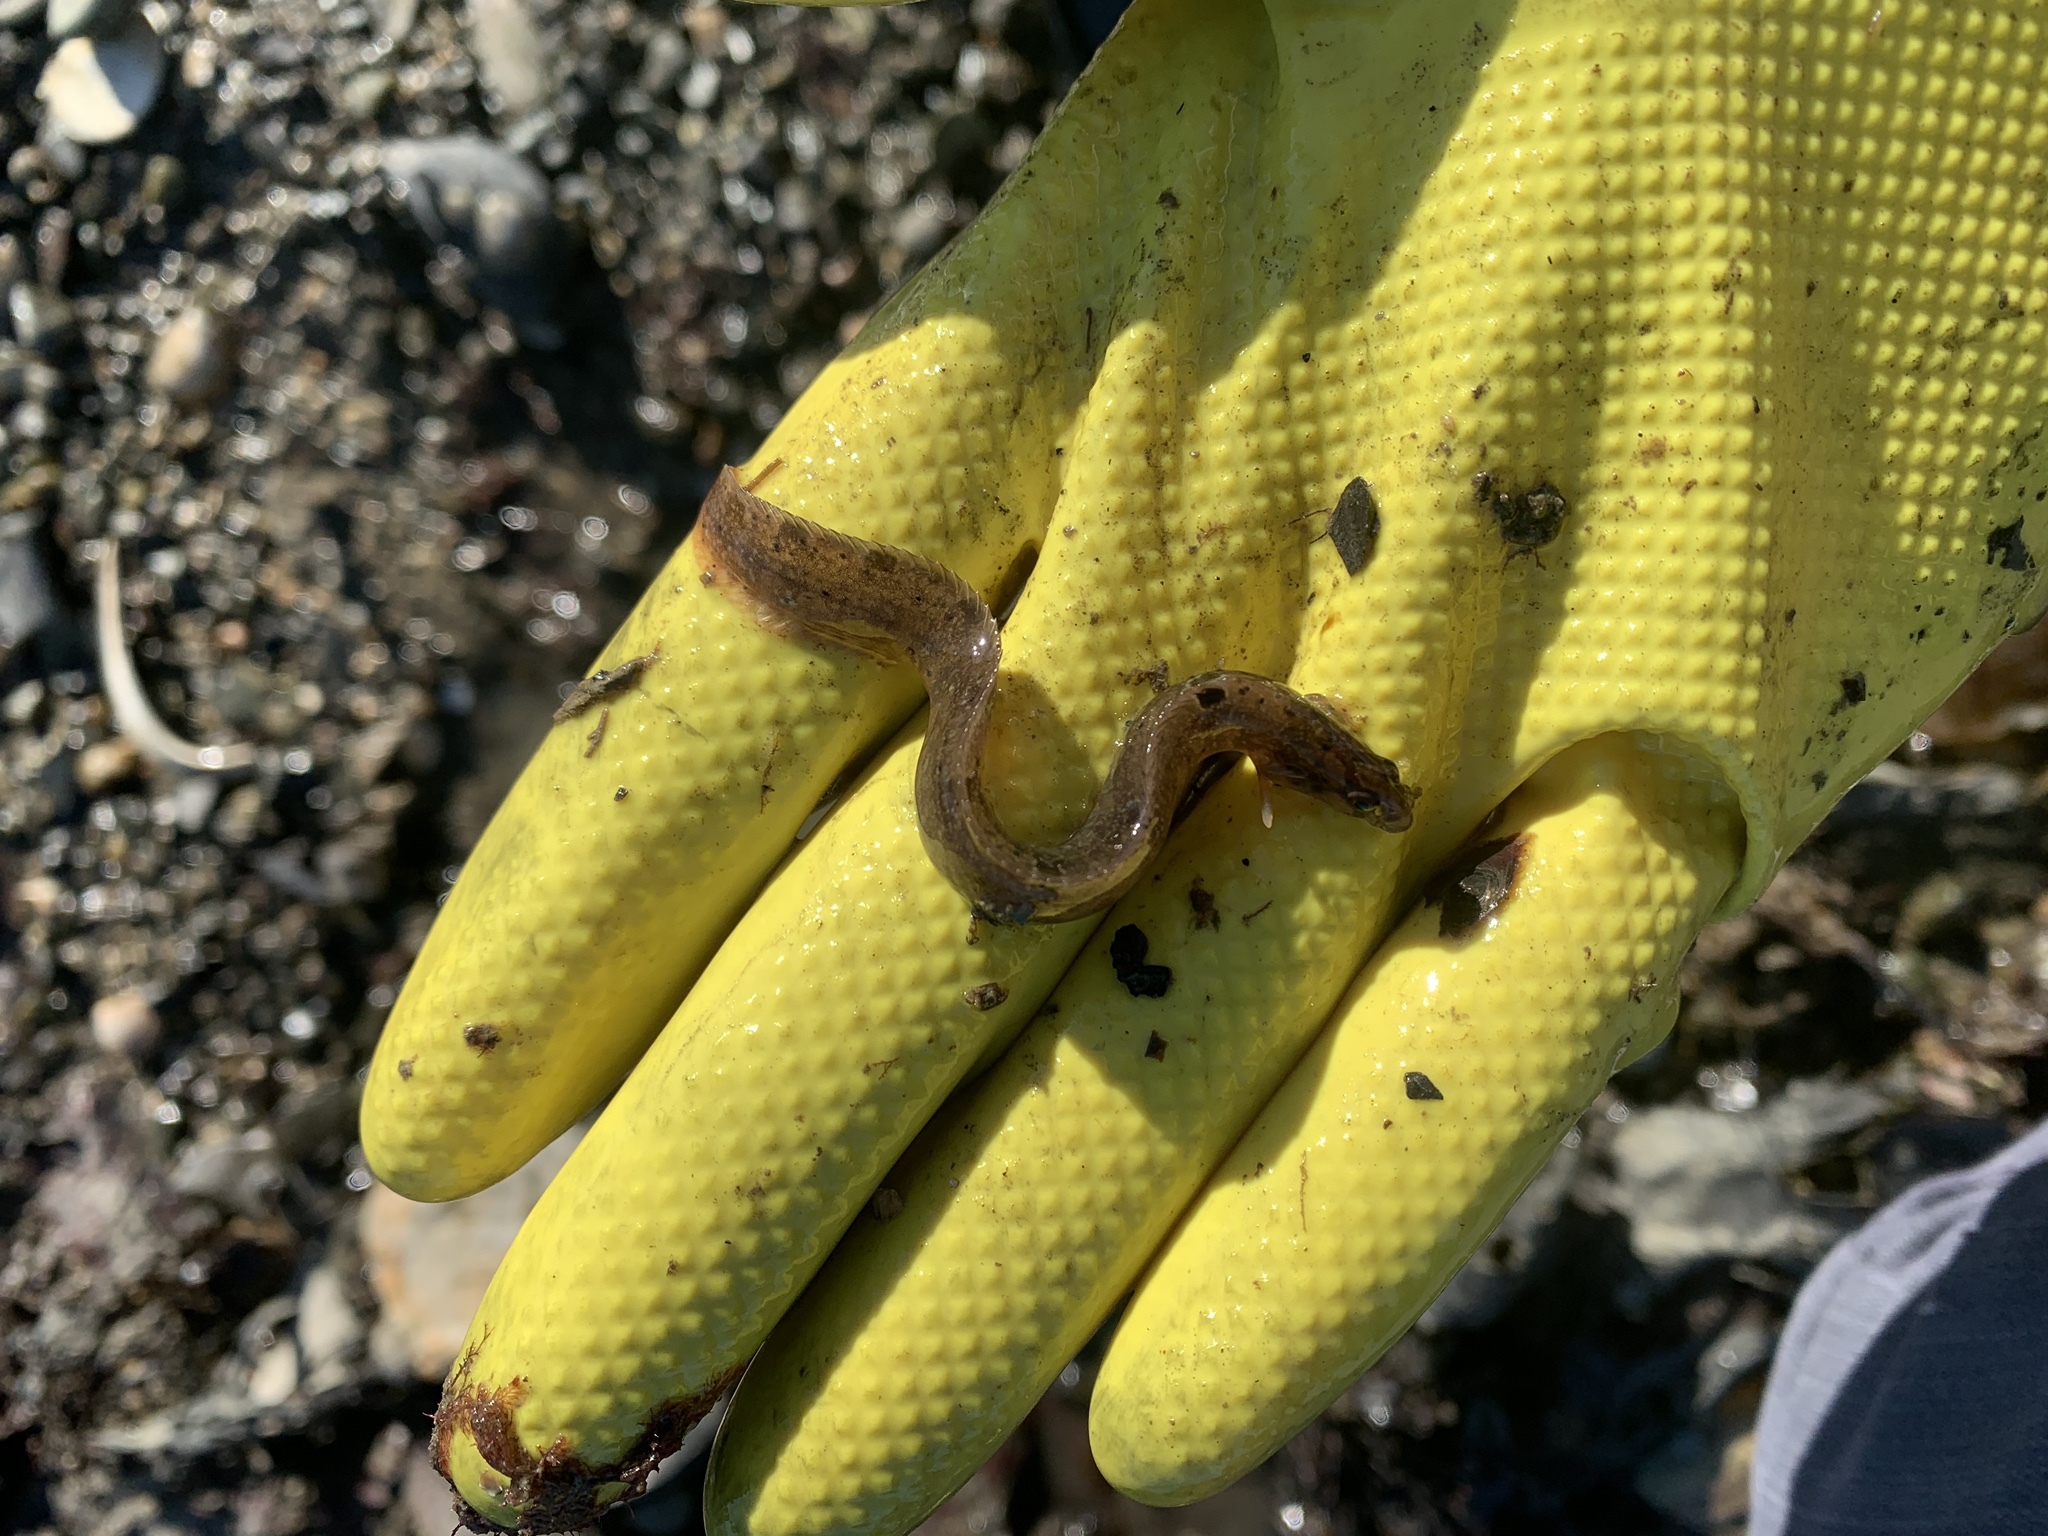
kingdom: Animalia
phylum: Chordata
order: Perciformes
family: Pholidae
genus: Pholis
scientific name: Pholis gunnellus
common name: Butterfish
